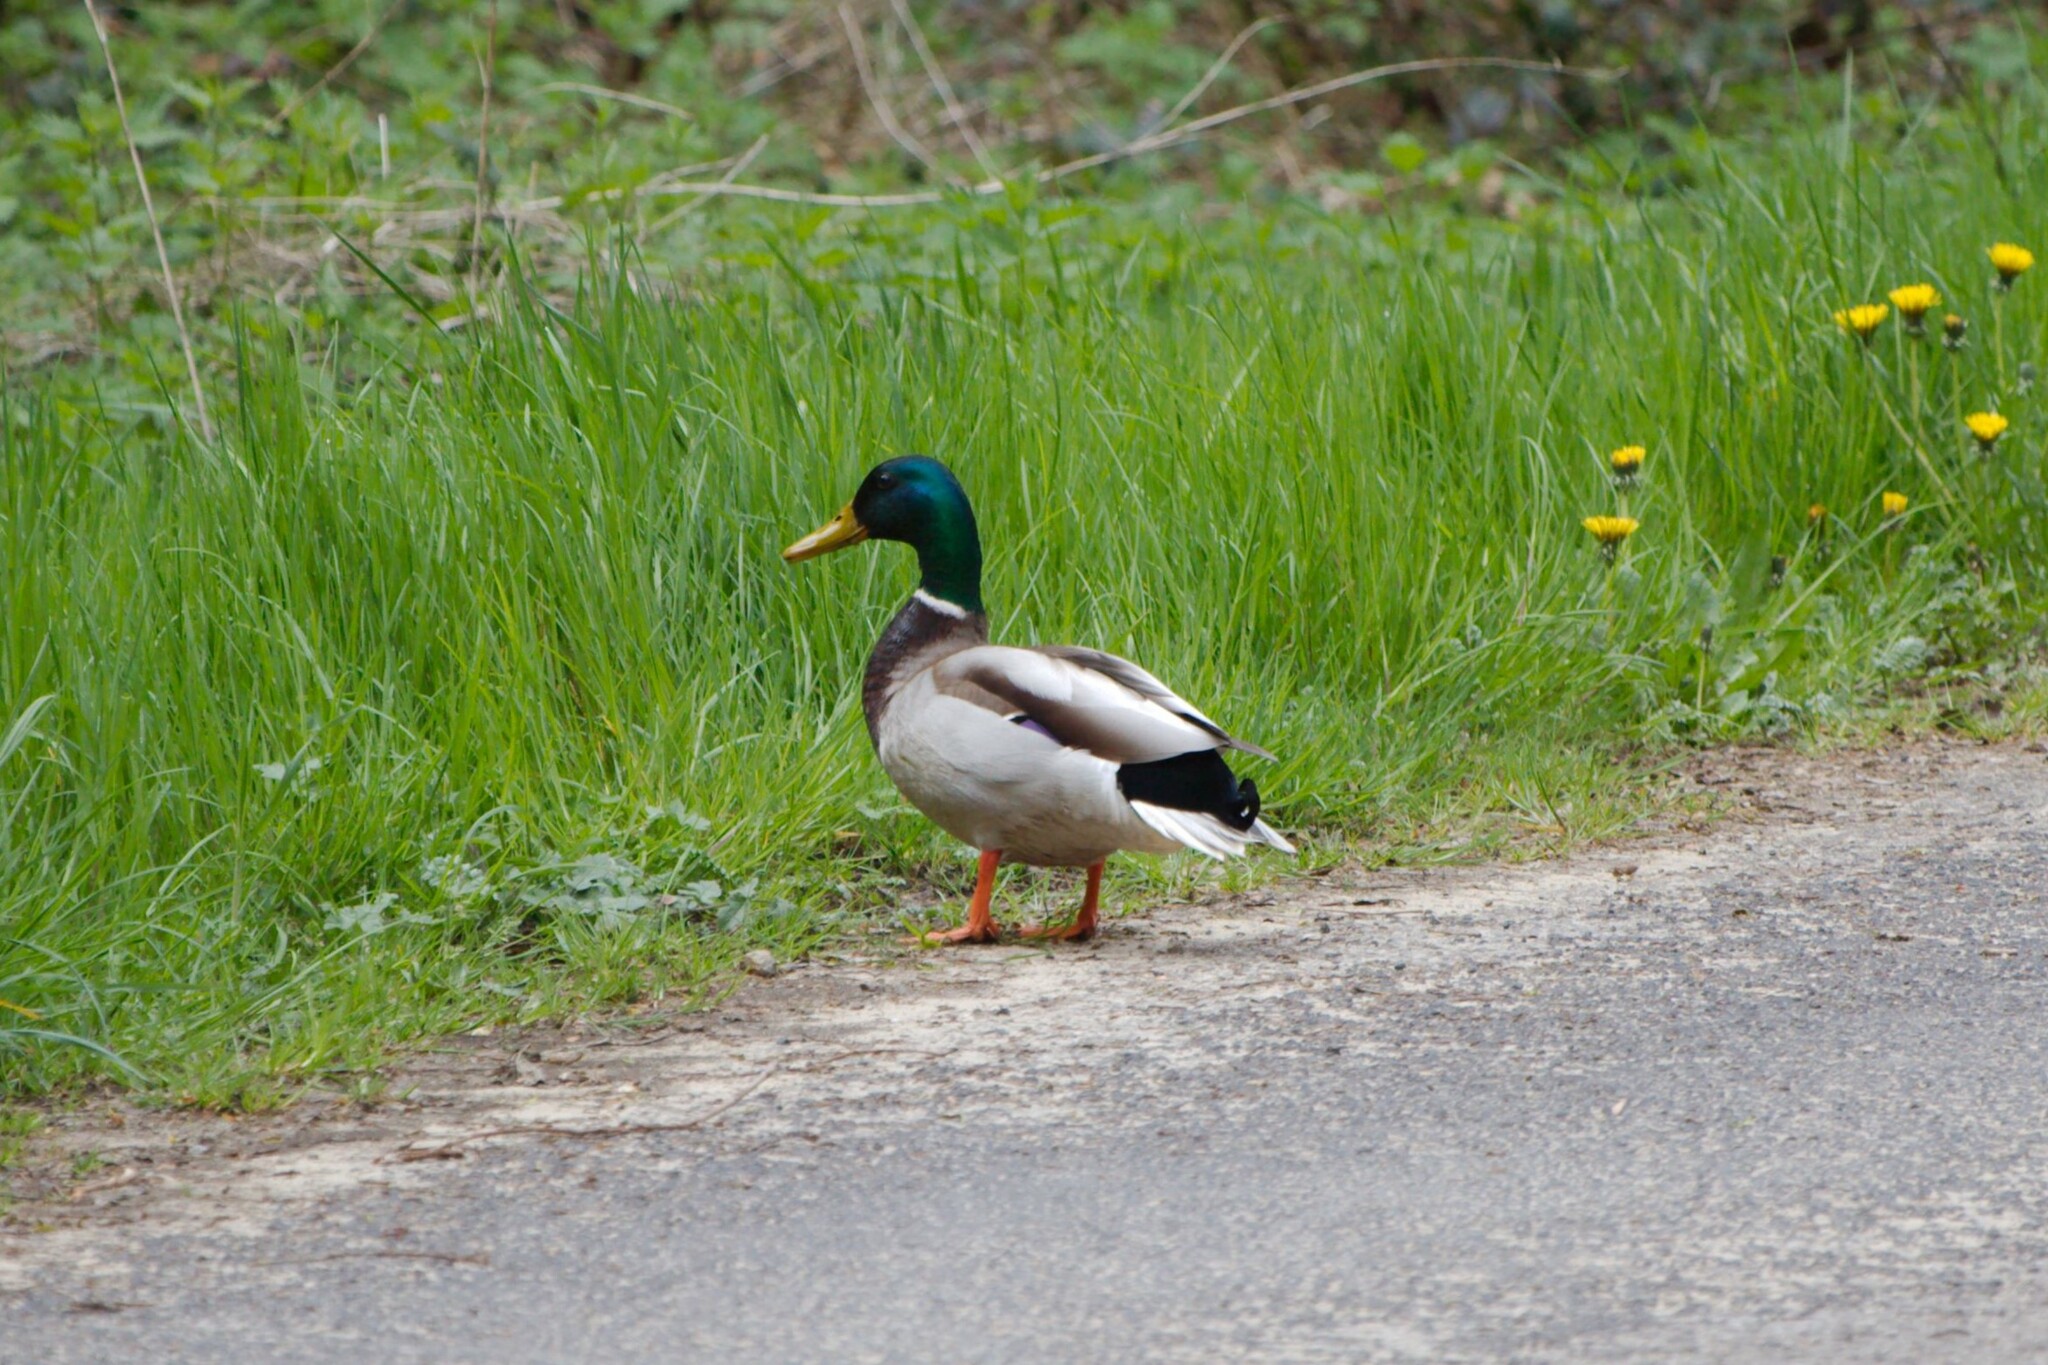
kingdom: Animalia
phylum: Chordata
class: Aves
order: Anseriformes
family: Anatidae
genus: Anas
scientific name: Anas platyrhynchos
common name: Mallard
